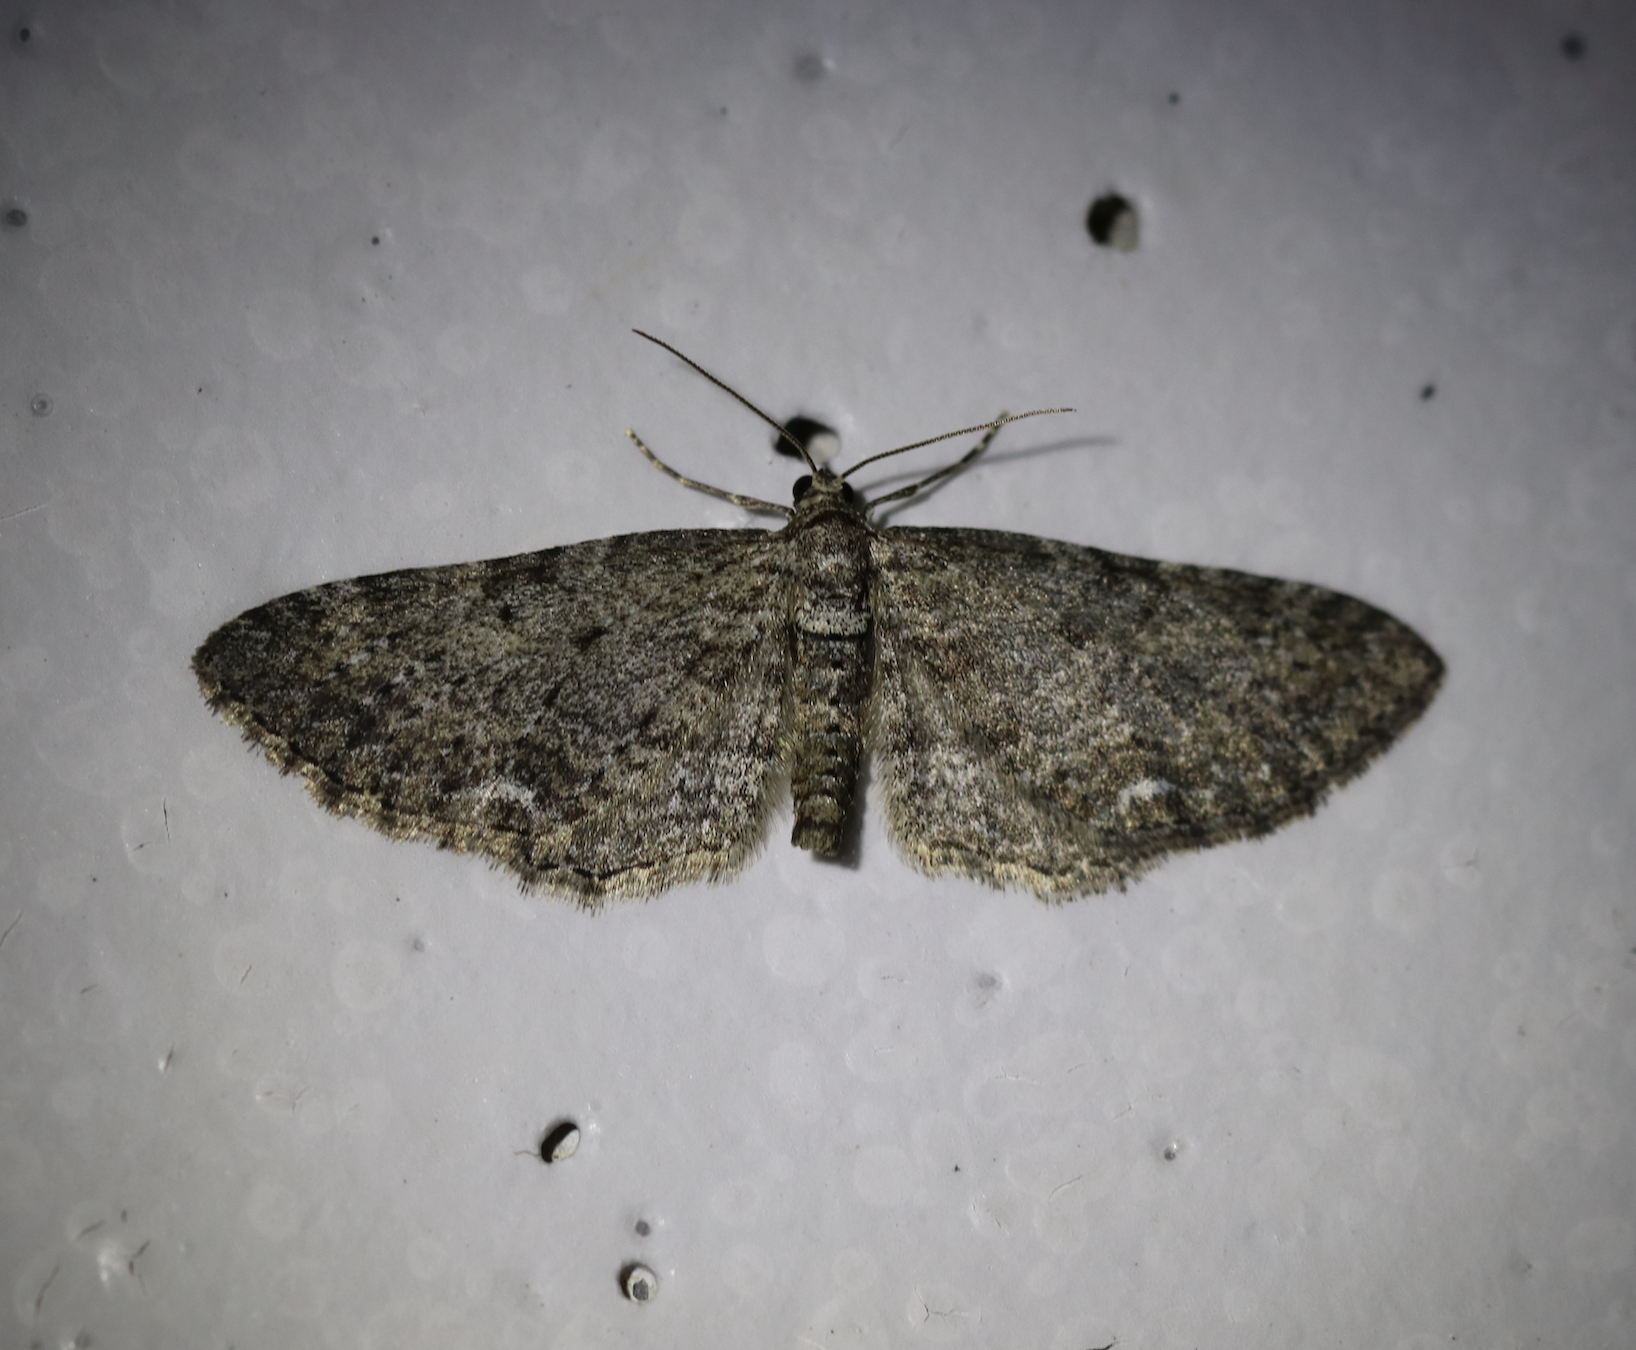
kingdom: Animalia
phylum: Arthropoda
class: Insecta
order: Lepidoptera
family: Geometridae
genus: Horisme
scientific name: Horisme aemulata
